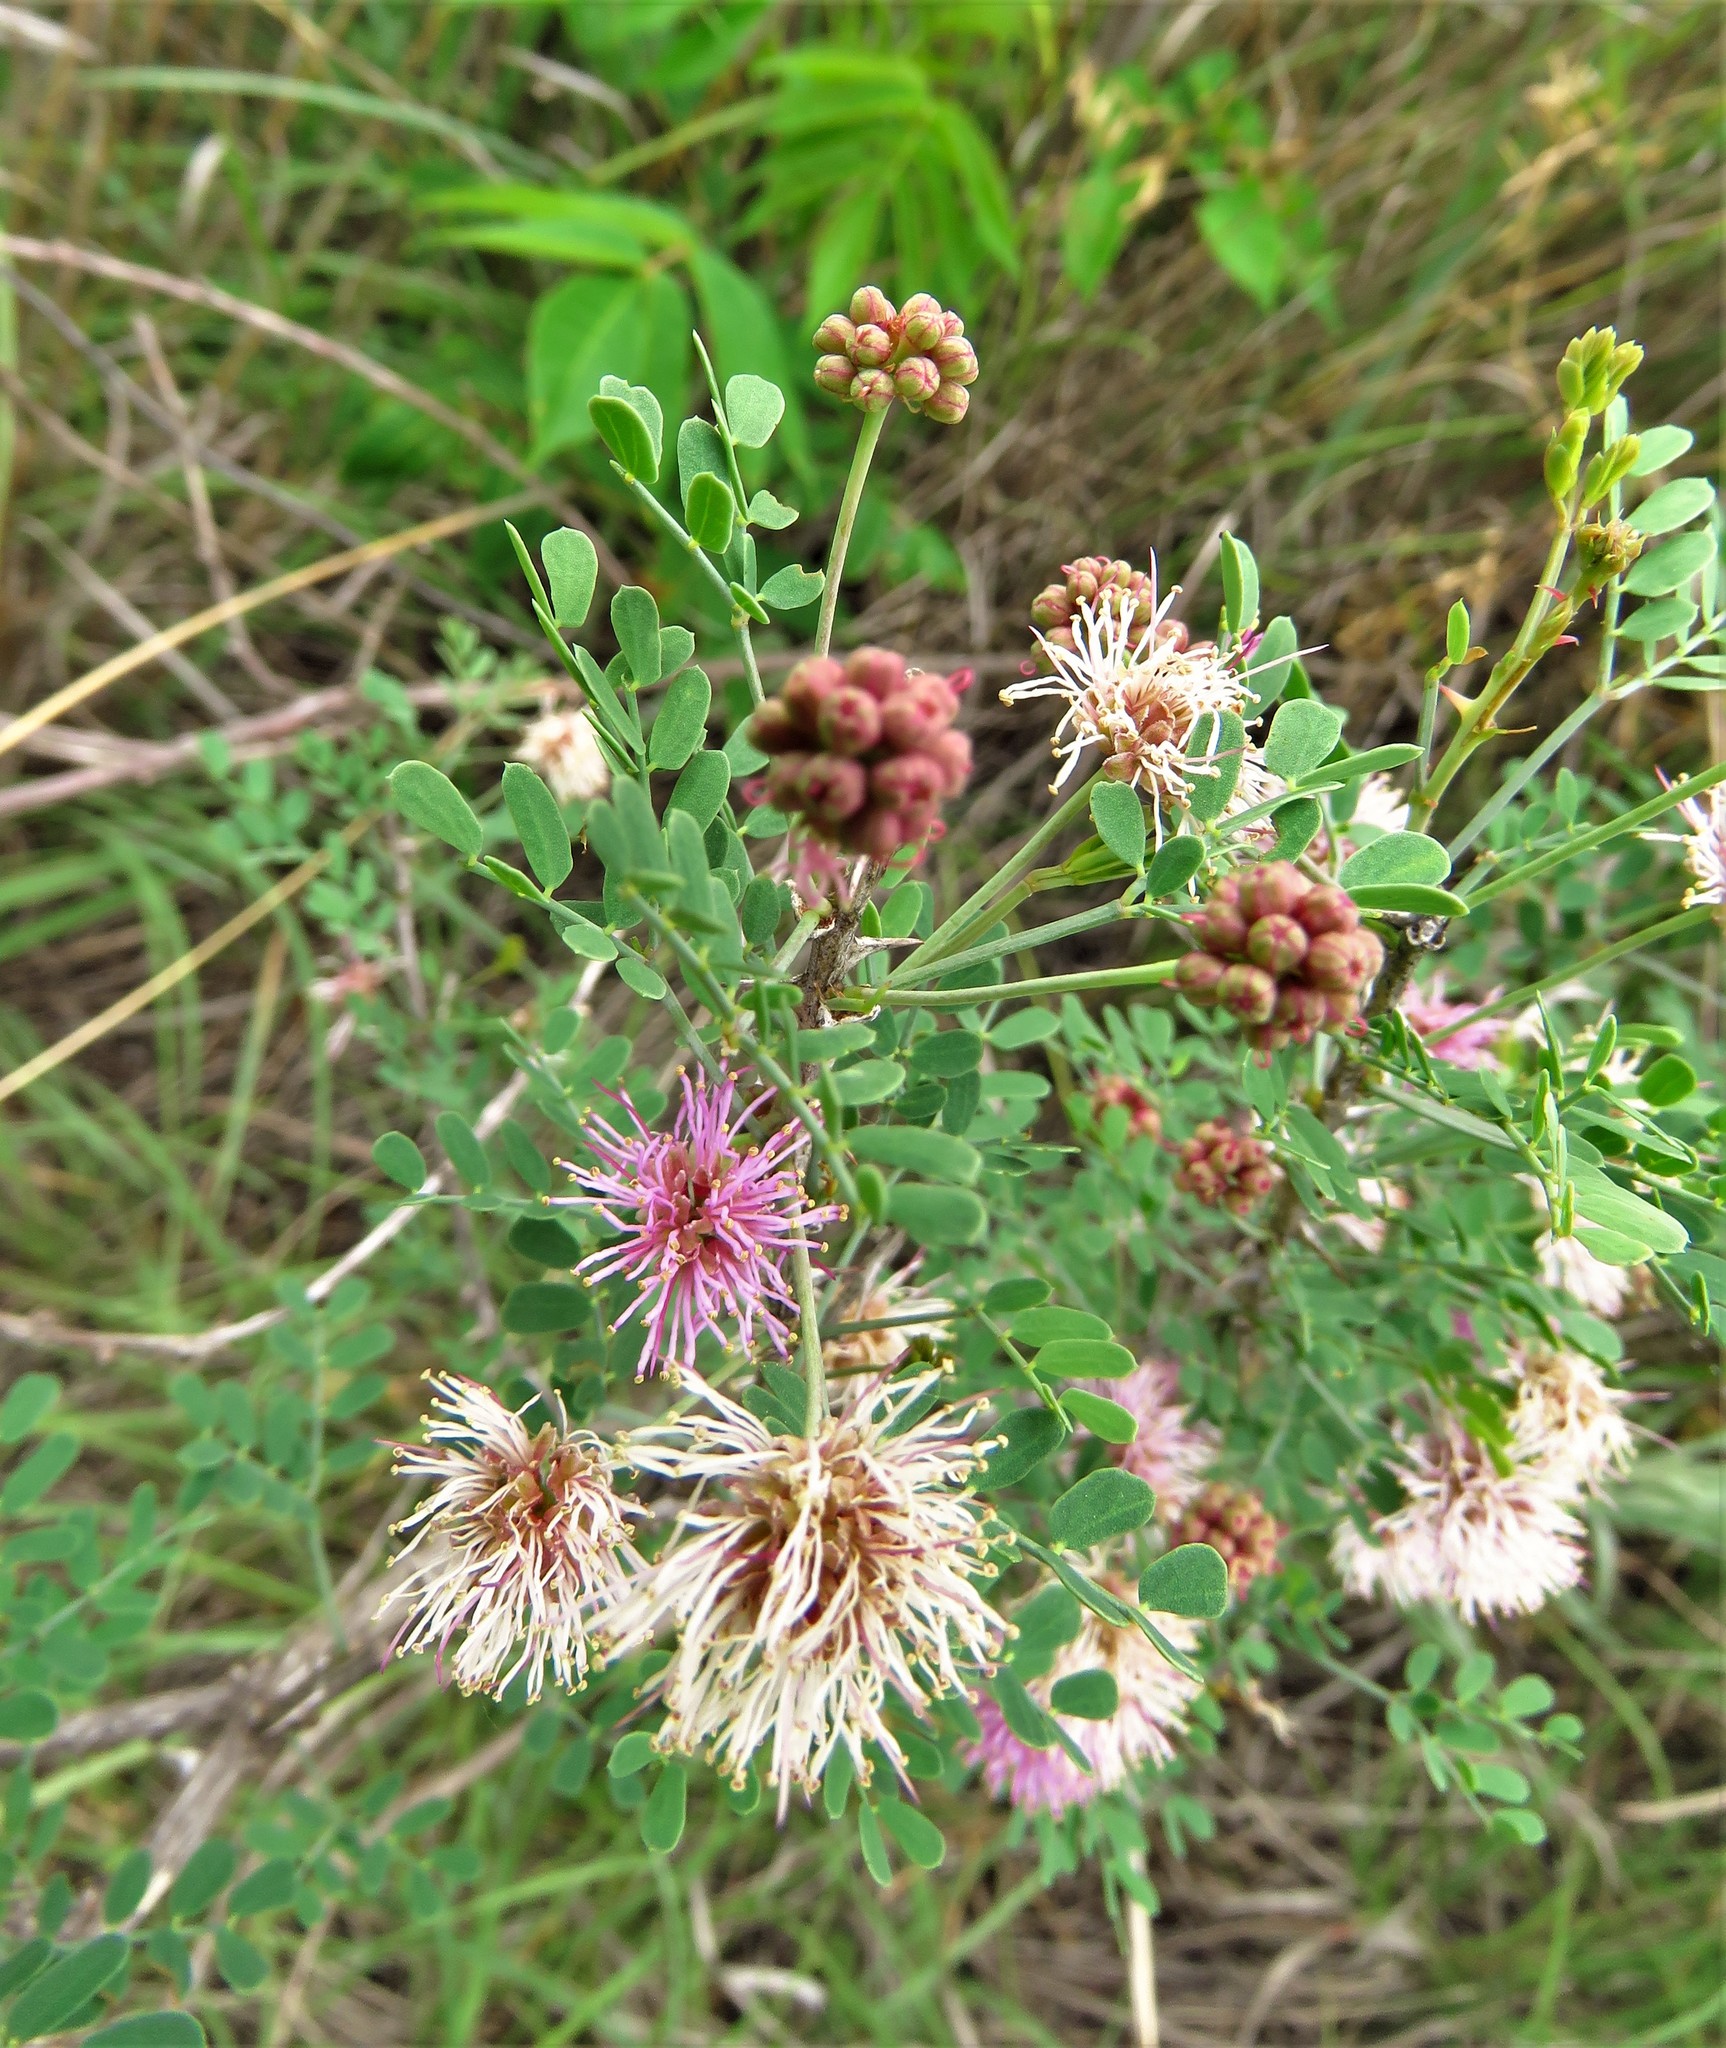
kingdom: Plantae
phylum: Tracheophyta
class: Magnoliopsida
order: Fabales
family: Fabaceae
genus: Mimosa
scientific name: Mimosa borealis
